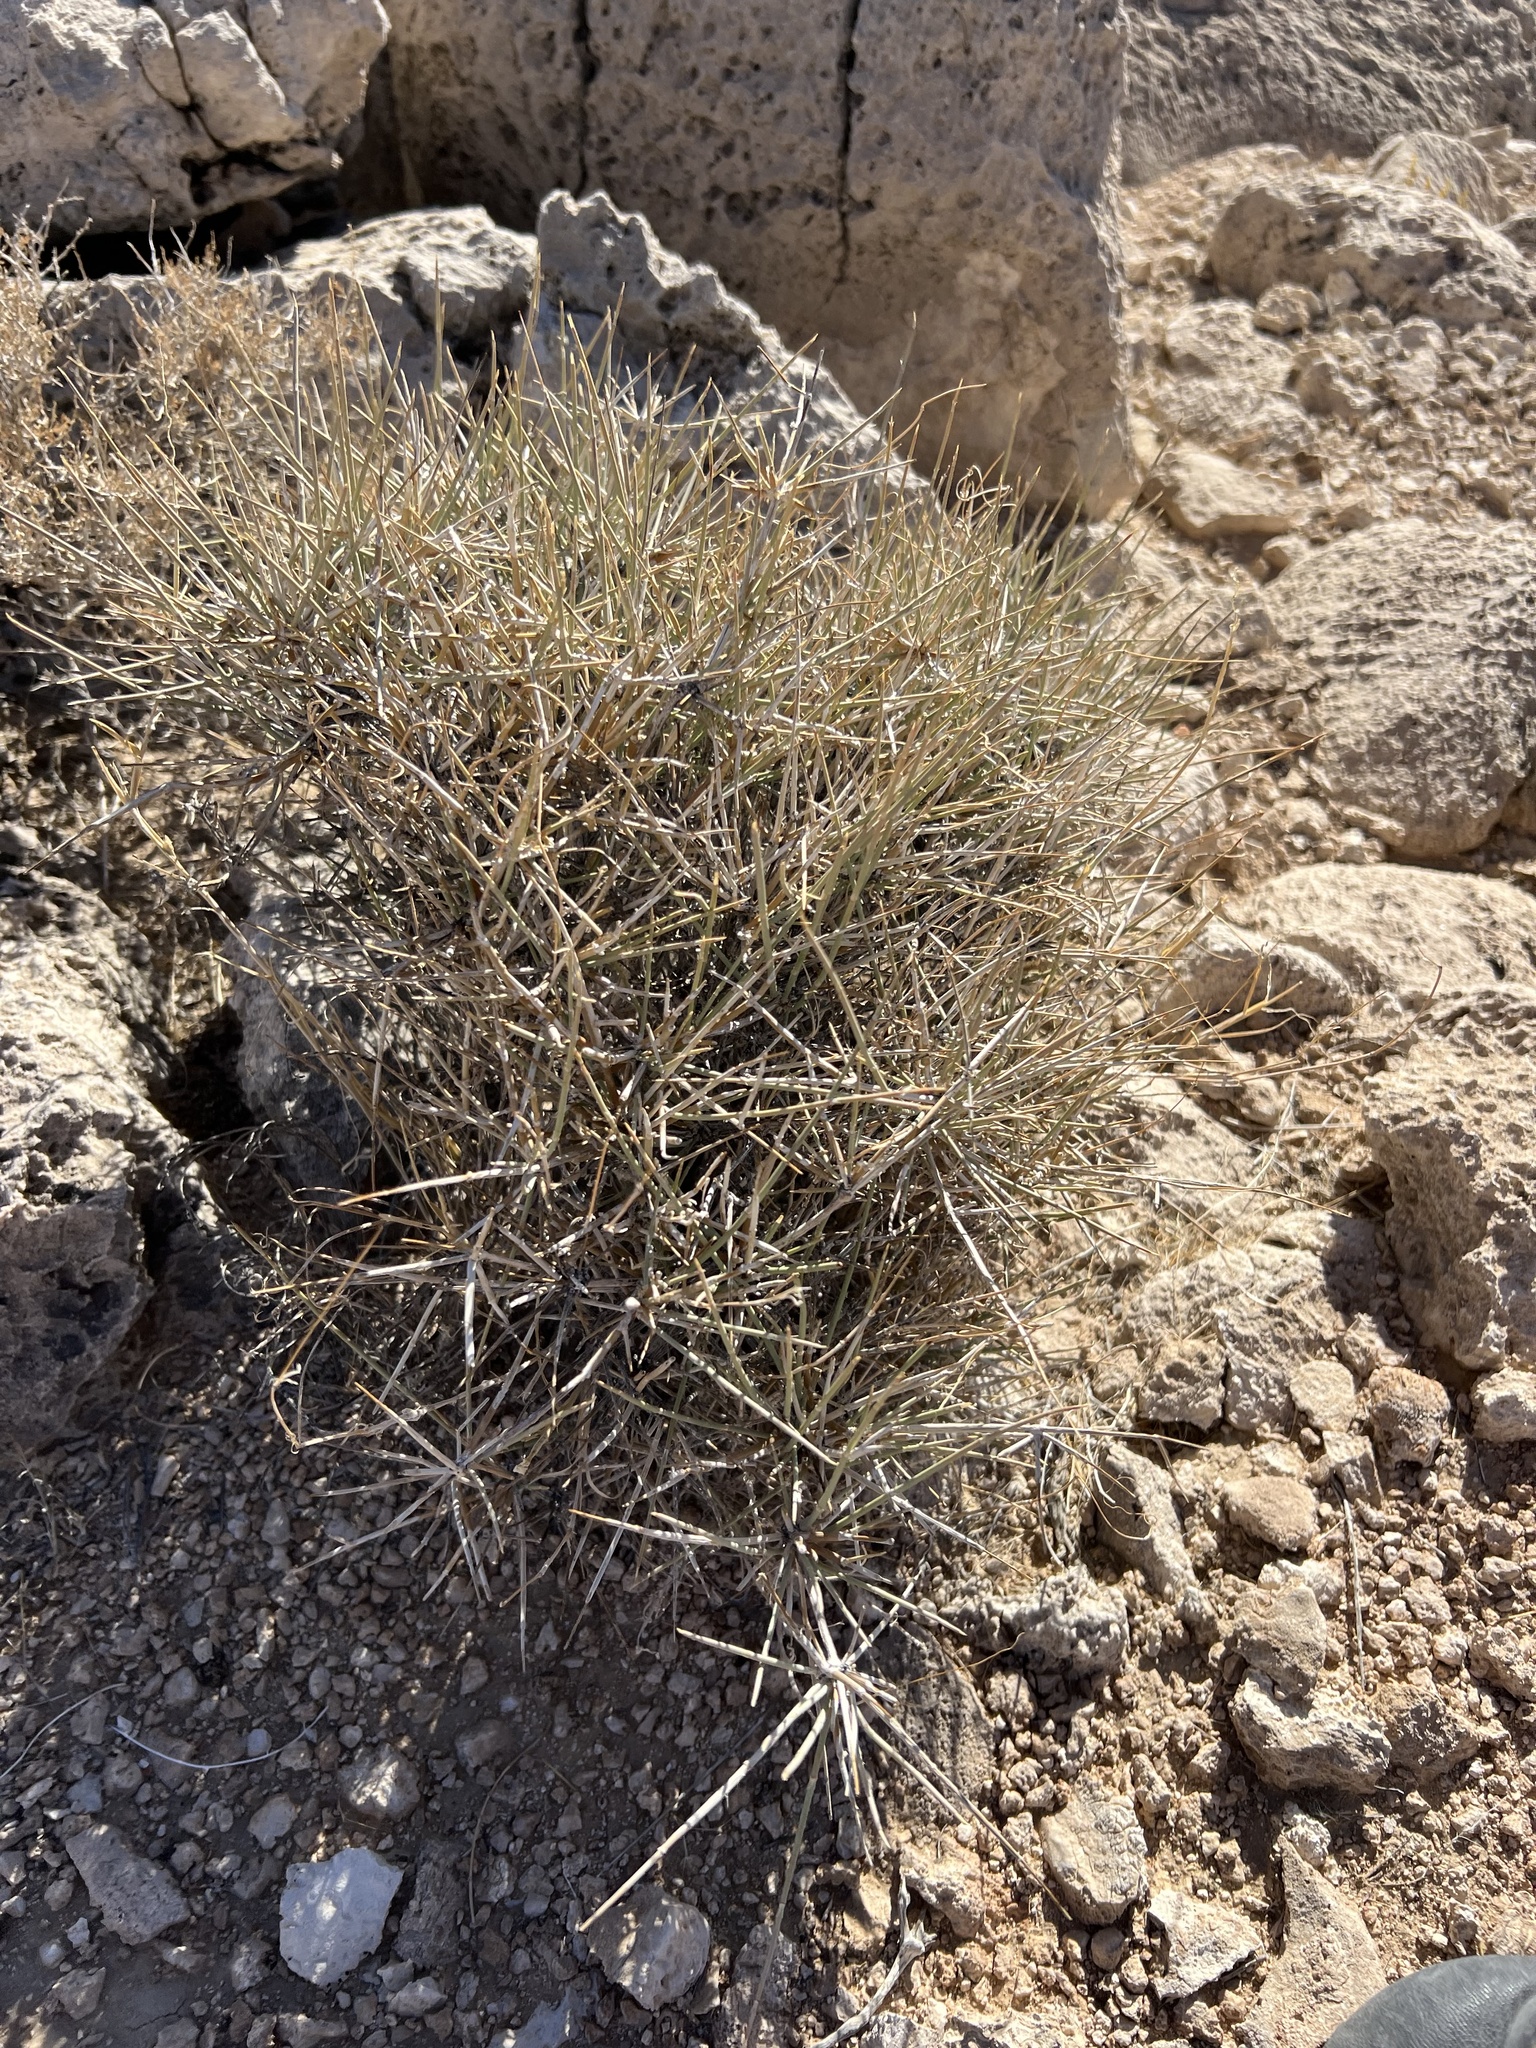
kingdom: Plantae
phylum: Tracheophyta
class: Gnetopsida
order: Ephedrales
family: Ephedraceae
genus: Ephedra
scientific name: Ephedra nevadensis
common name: Gray ephedra
